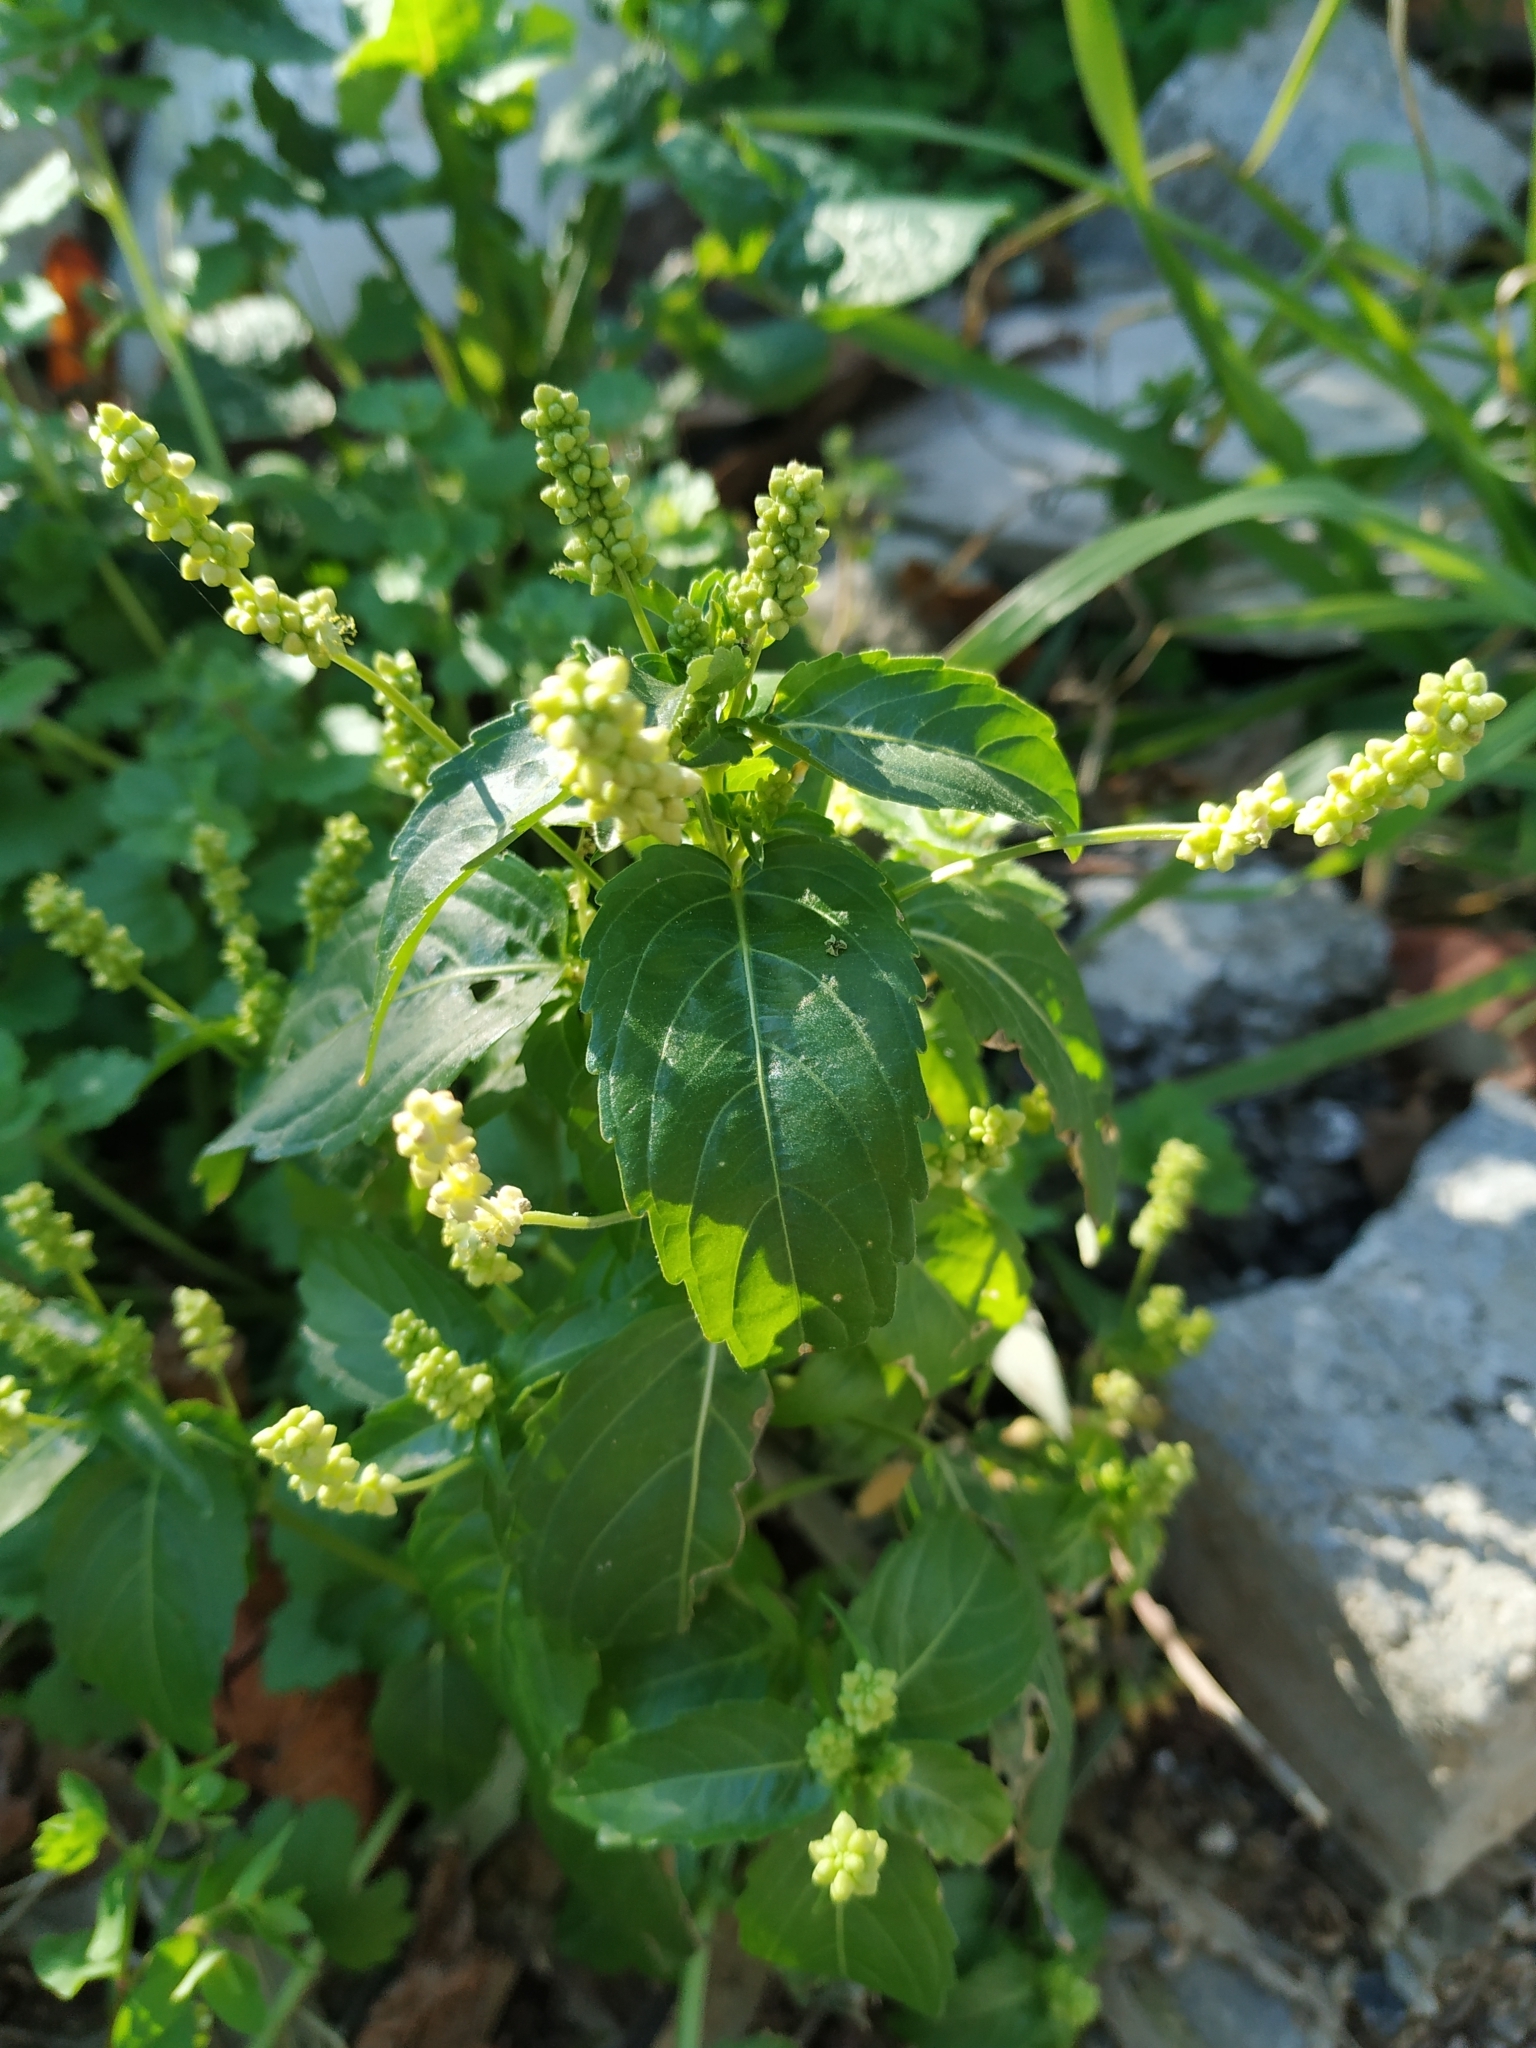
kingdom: Plantae
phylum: Tracheophyta
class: Magnoliopsida
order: Malpighiales
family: Euphorbiaceae
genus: Mercurialis
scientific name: Mercurialis annua
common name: Annual mercury
